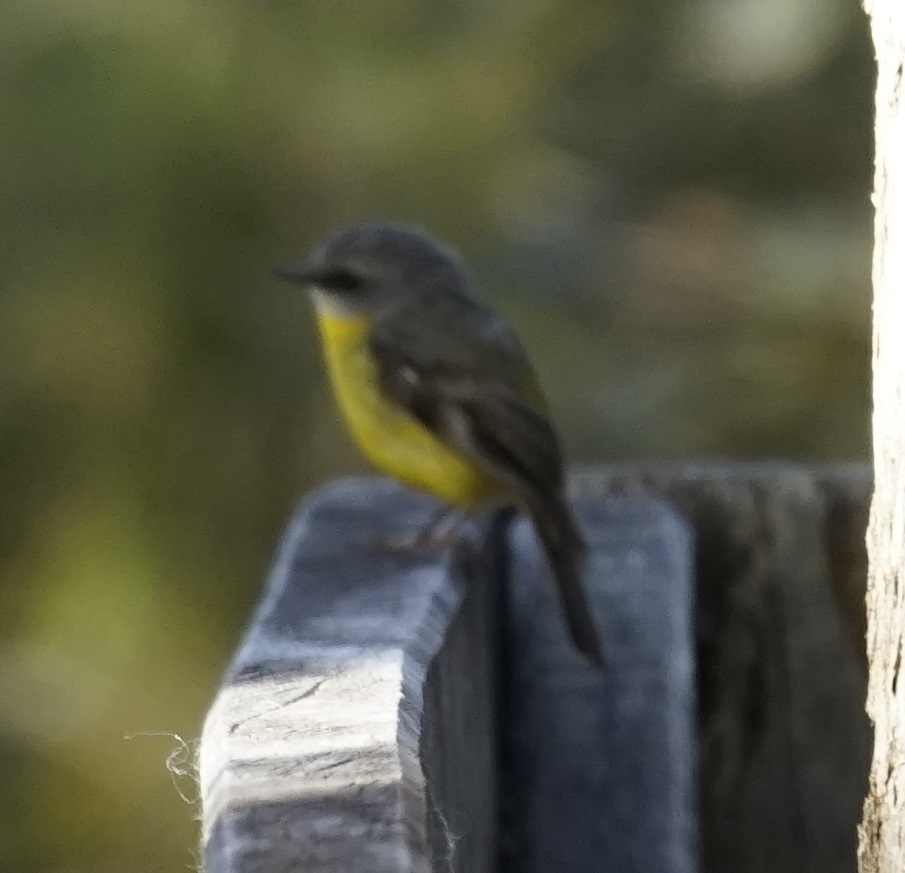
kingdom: Animalia
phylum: Chordata
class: Aves
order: Passeriformes
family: Petroicidae
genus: Eopsaltria
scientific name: Eopsaltria australis
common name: Eastern yellow robin
